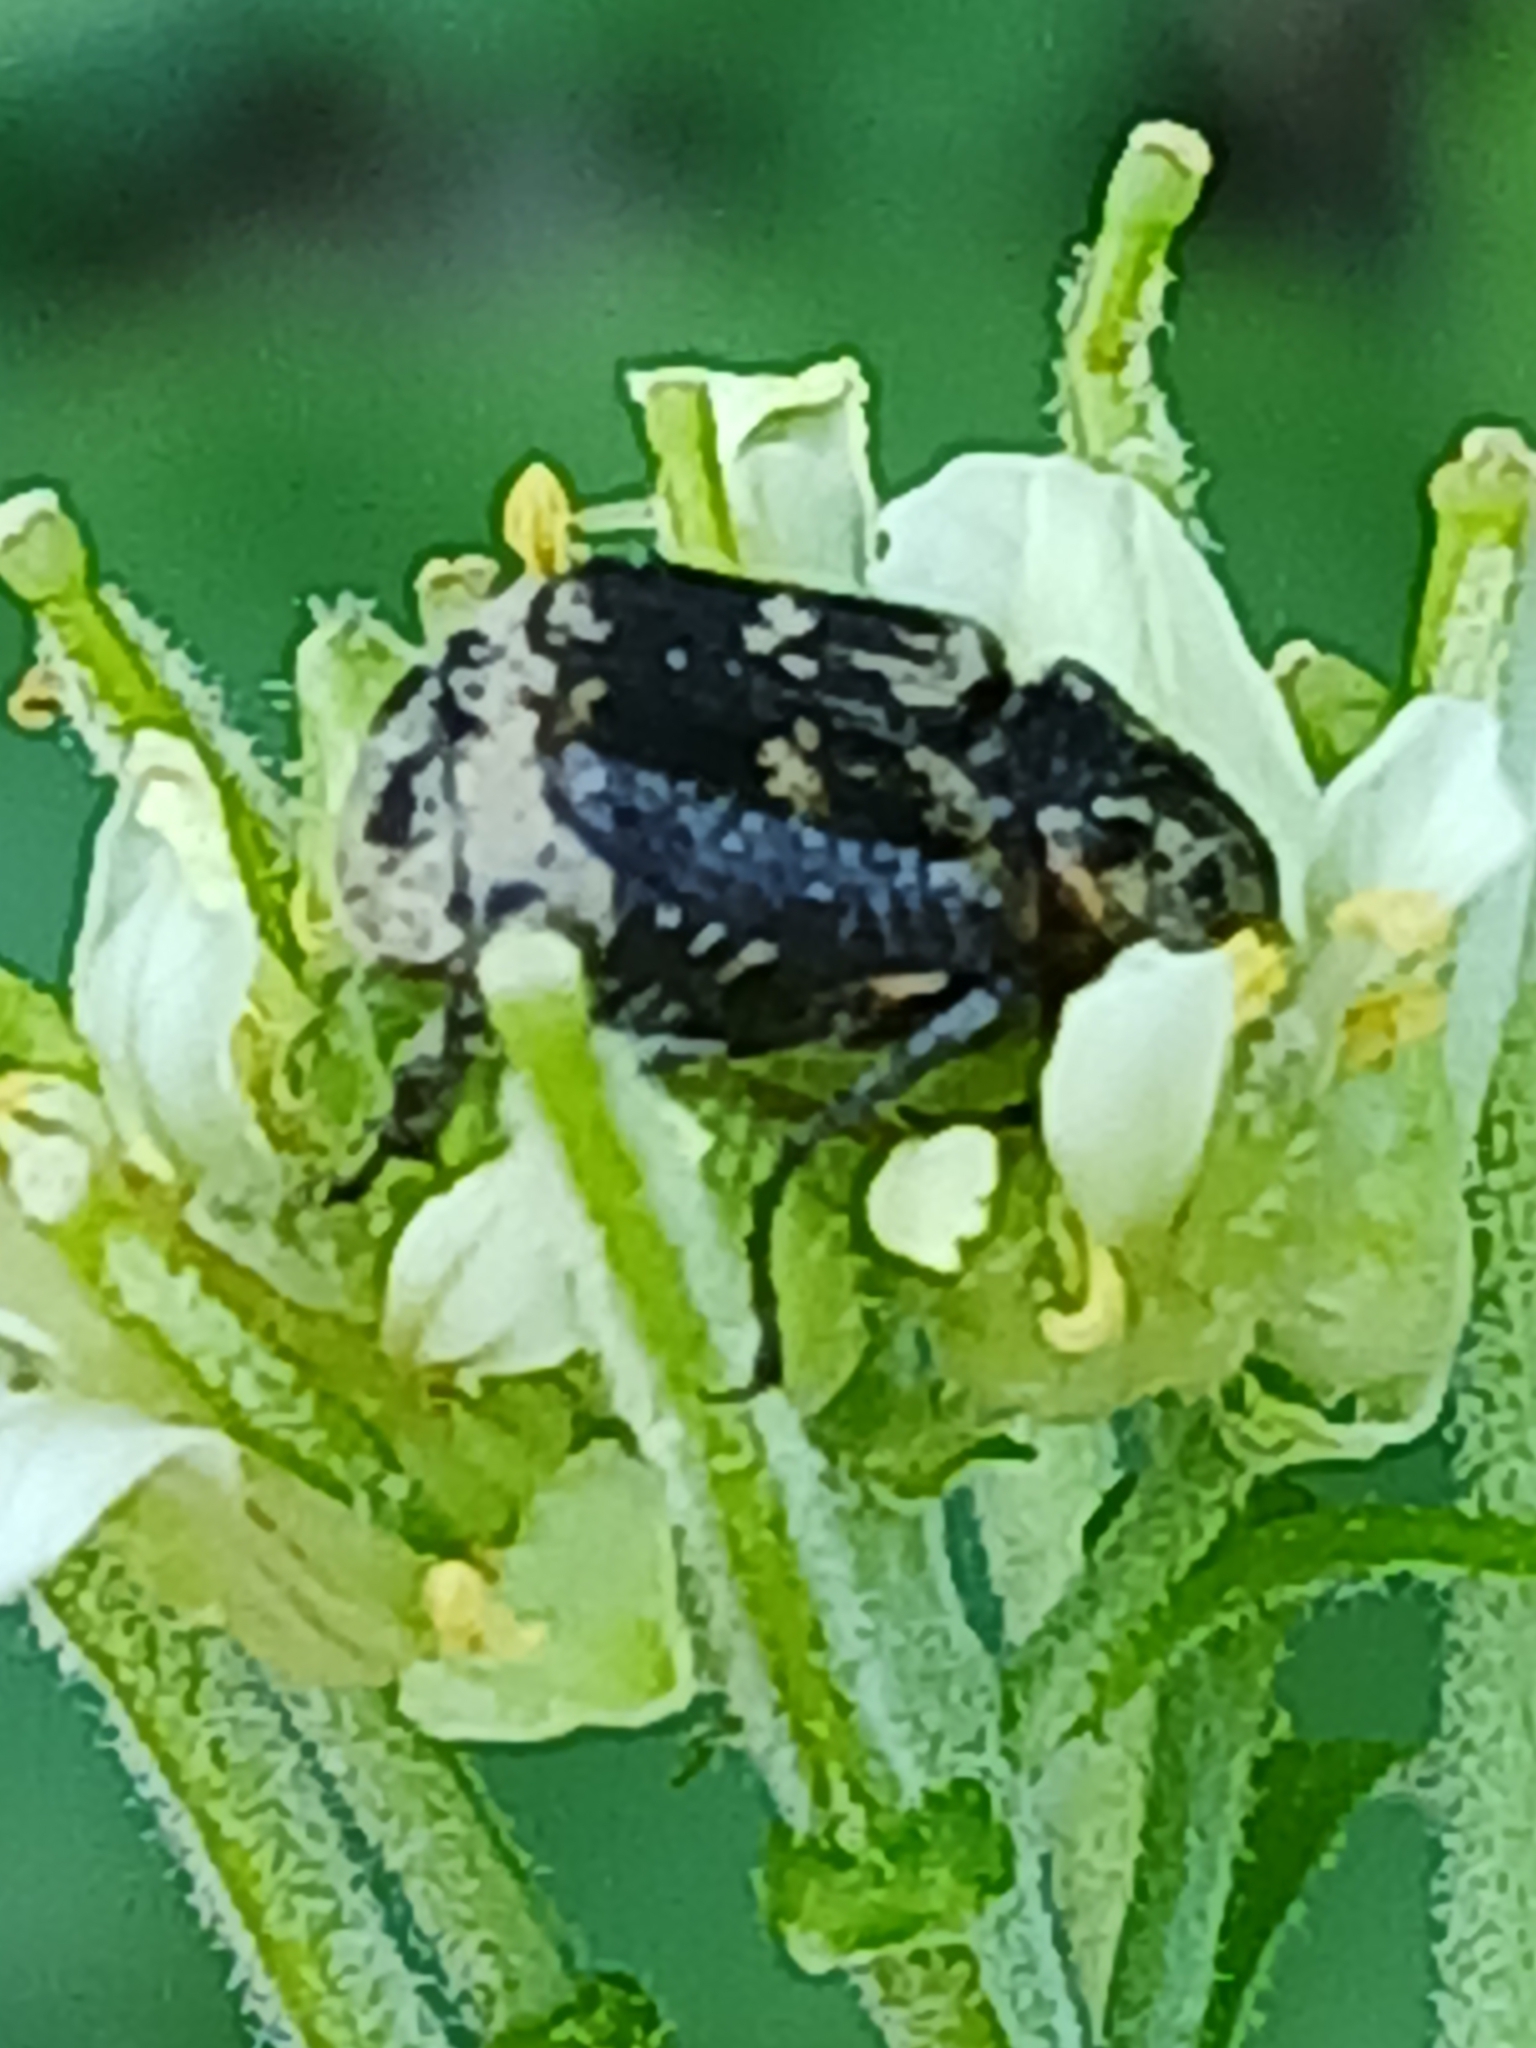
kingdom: Animalia
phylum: Arthropoda
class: Insecta
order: Coleoptera
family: Scarabaeidae
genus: Valgus
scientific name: Valgus hemipterus
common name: Bug flower chafer
